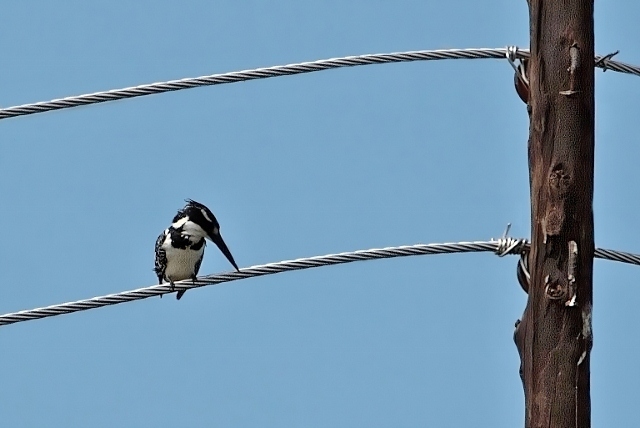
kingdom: Animalia
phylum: Chordata
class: Aves
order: Coraciiformes
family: Alcedinidae
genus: Ceryle
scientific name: Ceryle rudis
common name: Pied kingfisher
